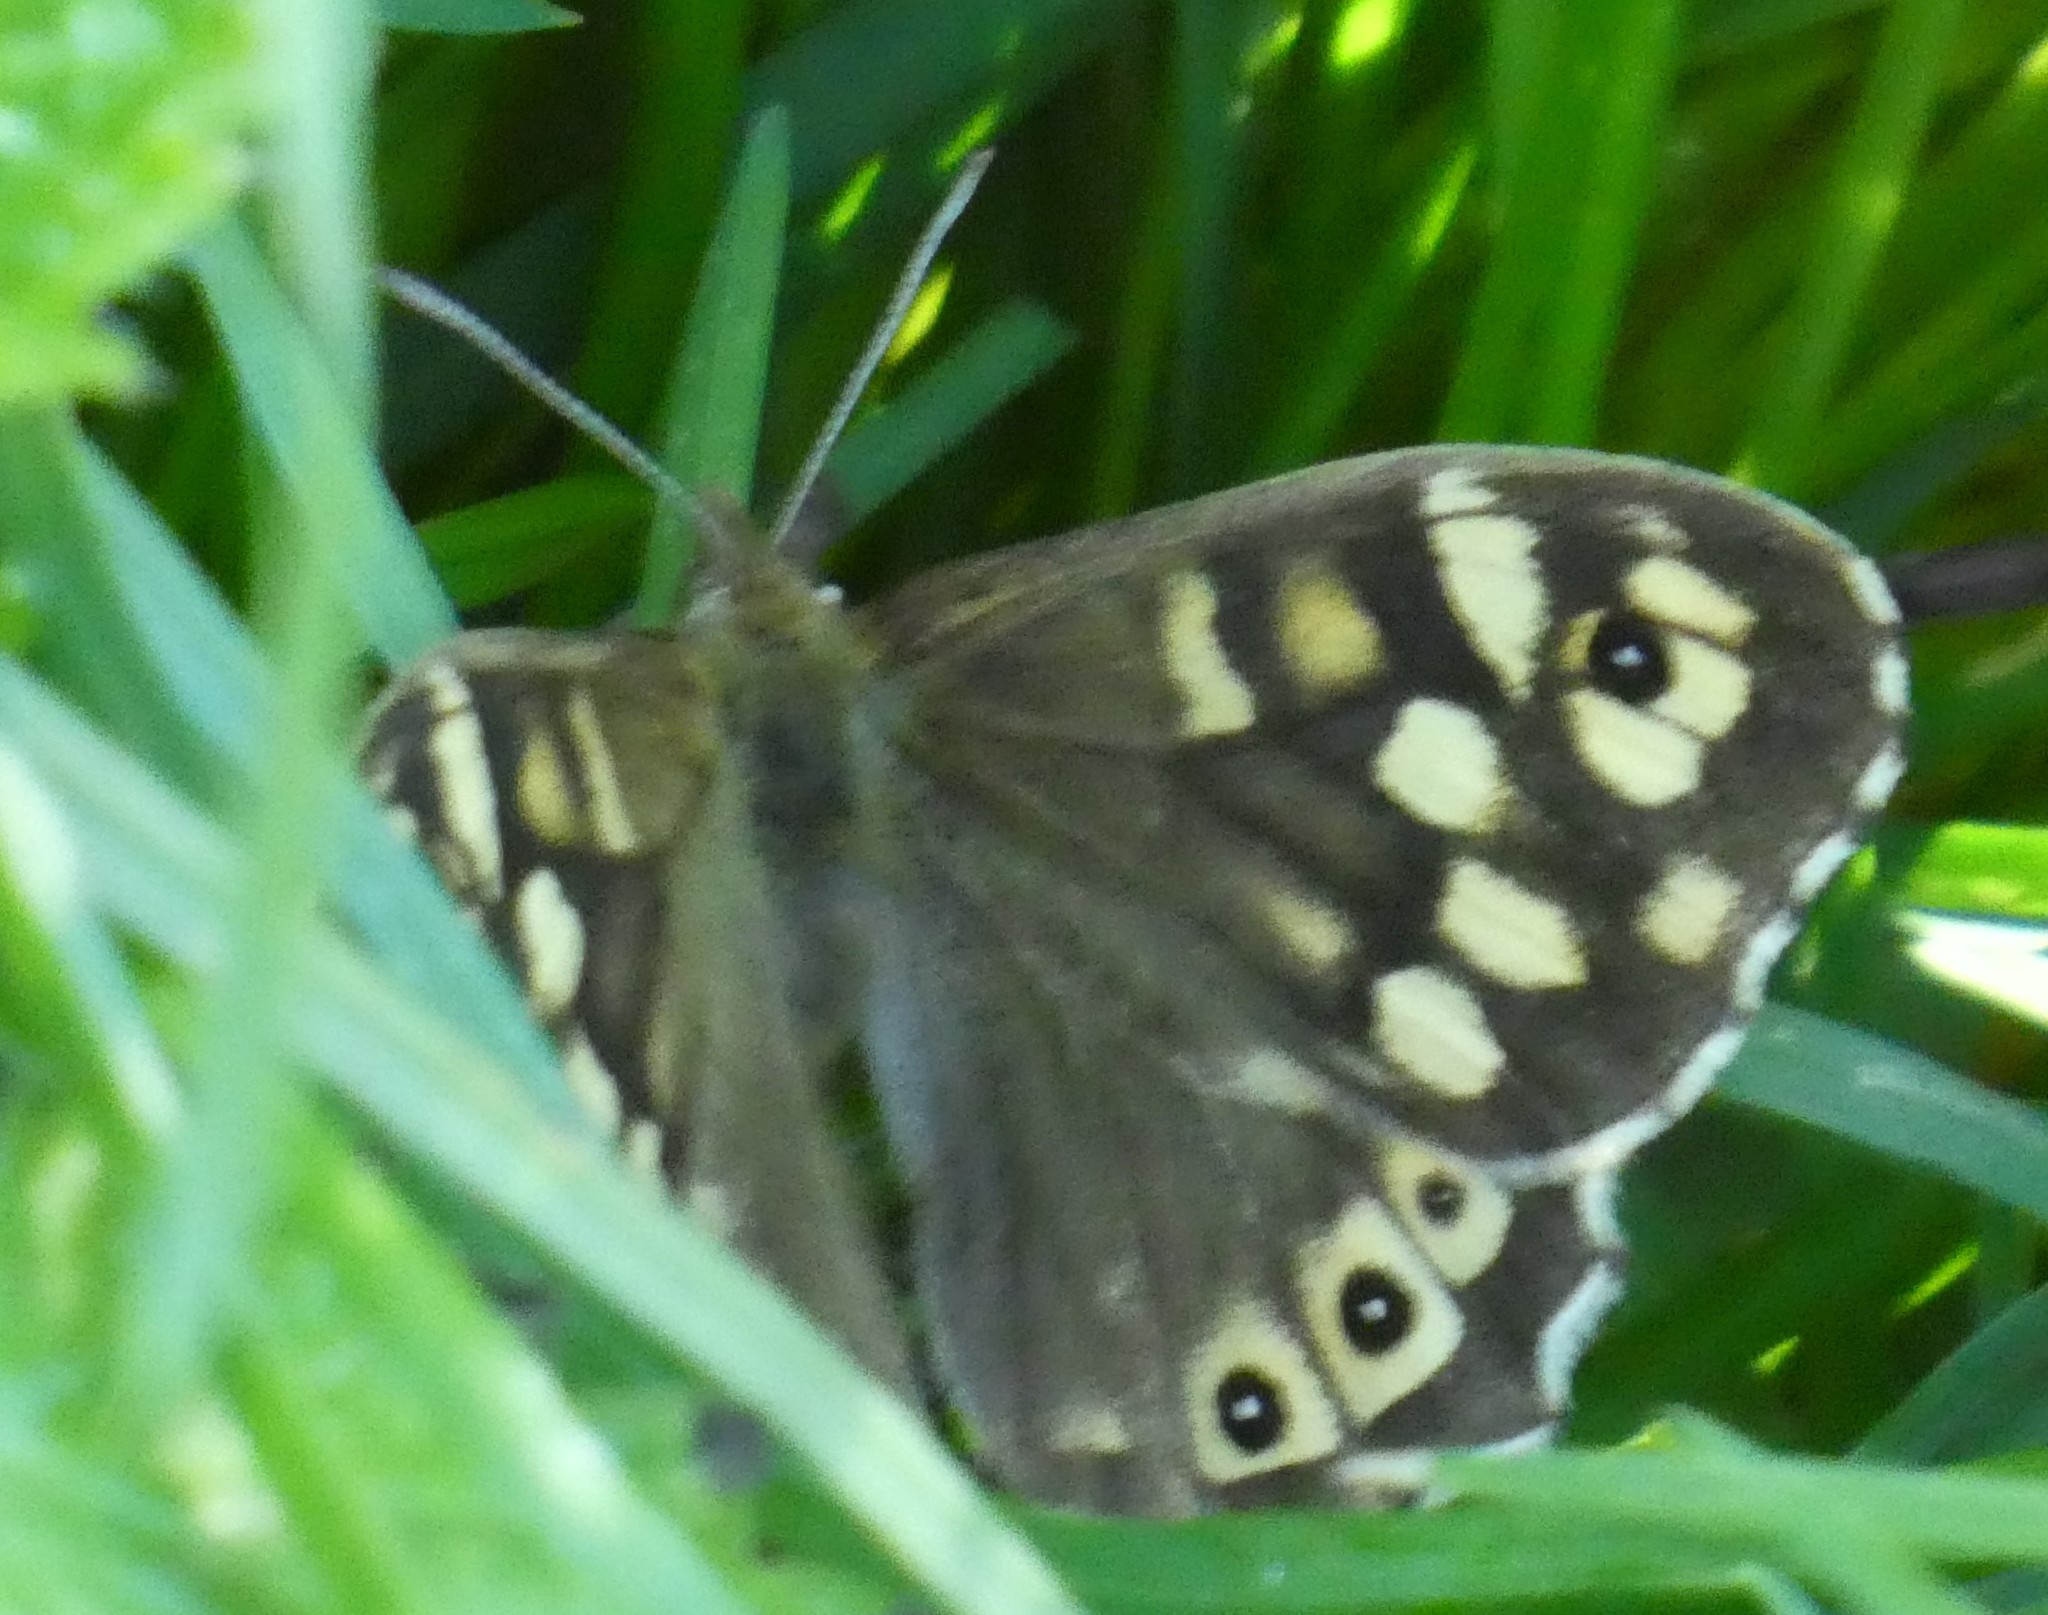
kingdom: Animalia
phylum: Arthropoda
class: Insecta
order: Lepidoptera
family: Nymphalidae
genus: Pararge
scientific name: Pararge aegeria
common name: Speckled wood
